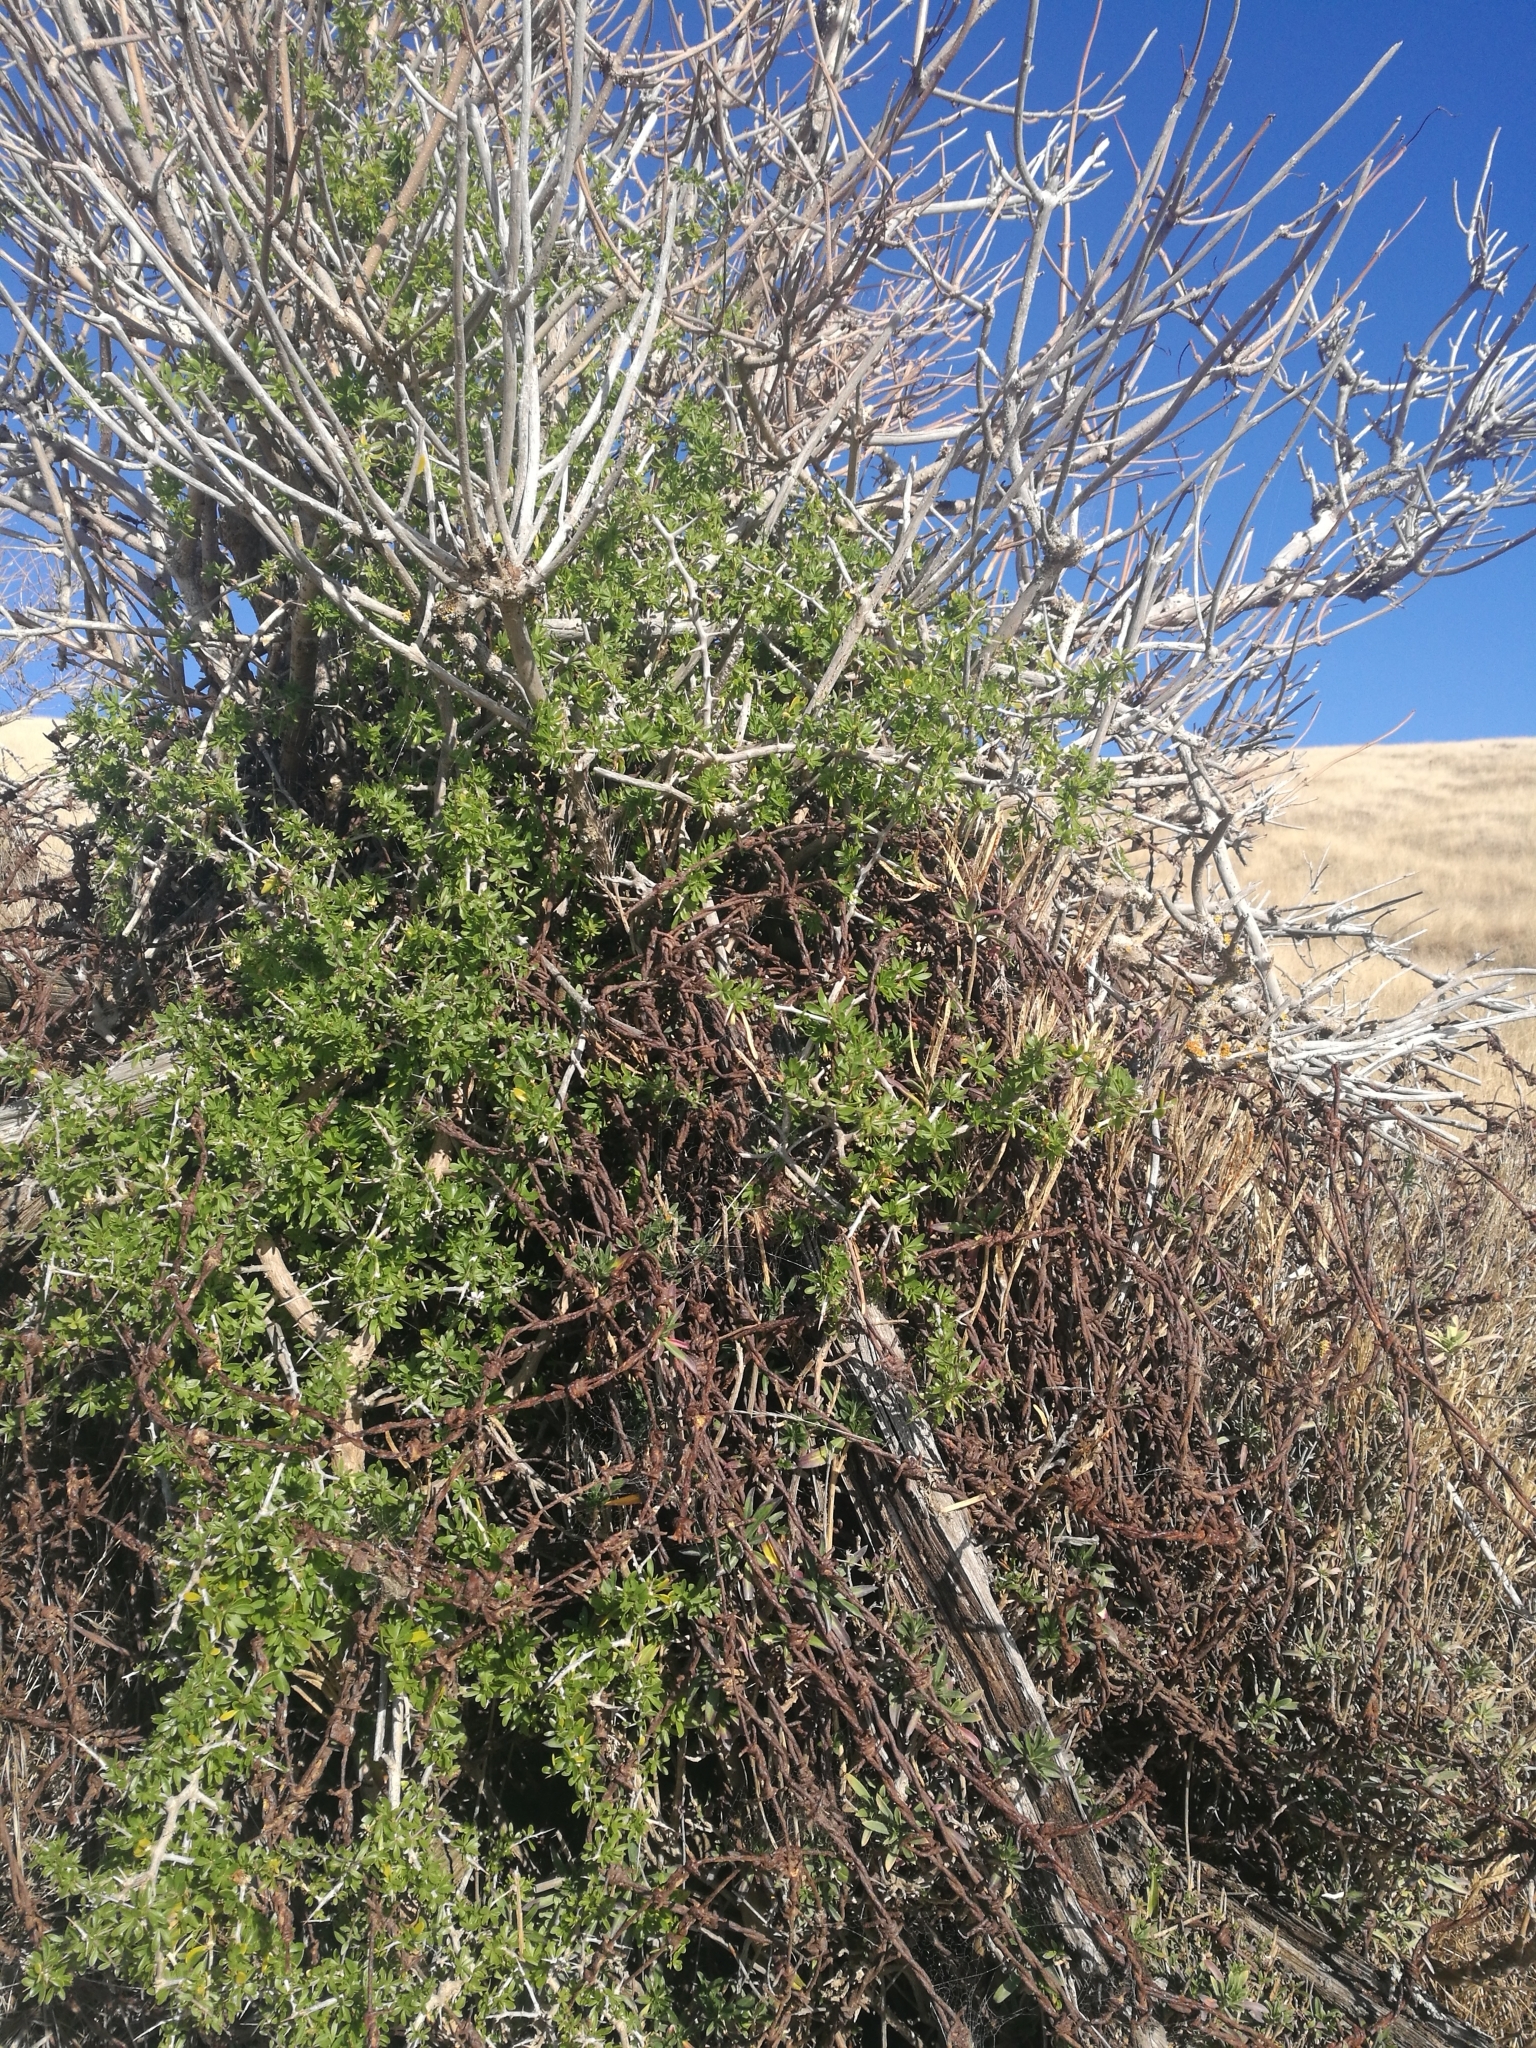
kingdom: Plantae
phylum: Tracheophyta
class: Magnoliopsida
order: Solanales
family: Solanaceae
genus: Lycium
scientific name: Lycium ferocissimum
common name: African boxthorn
